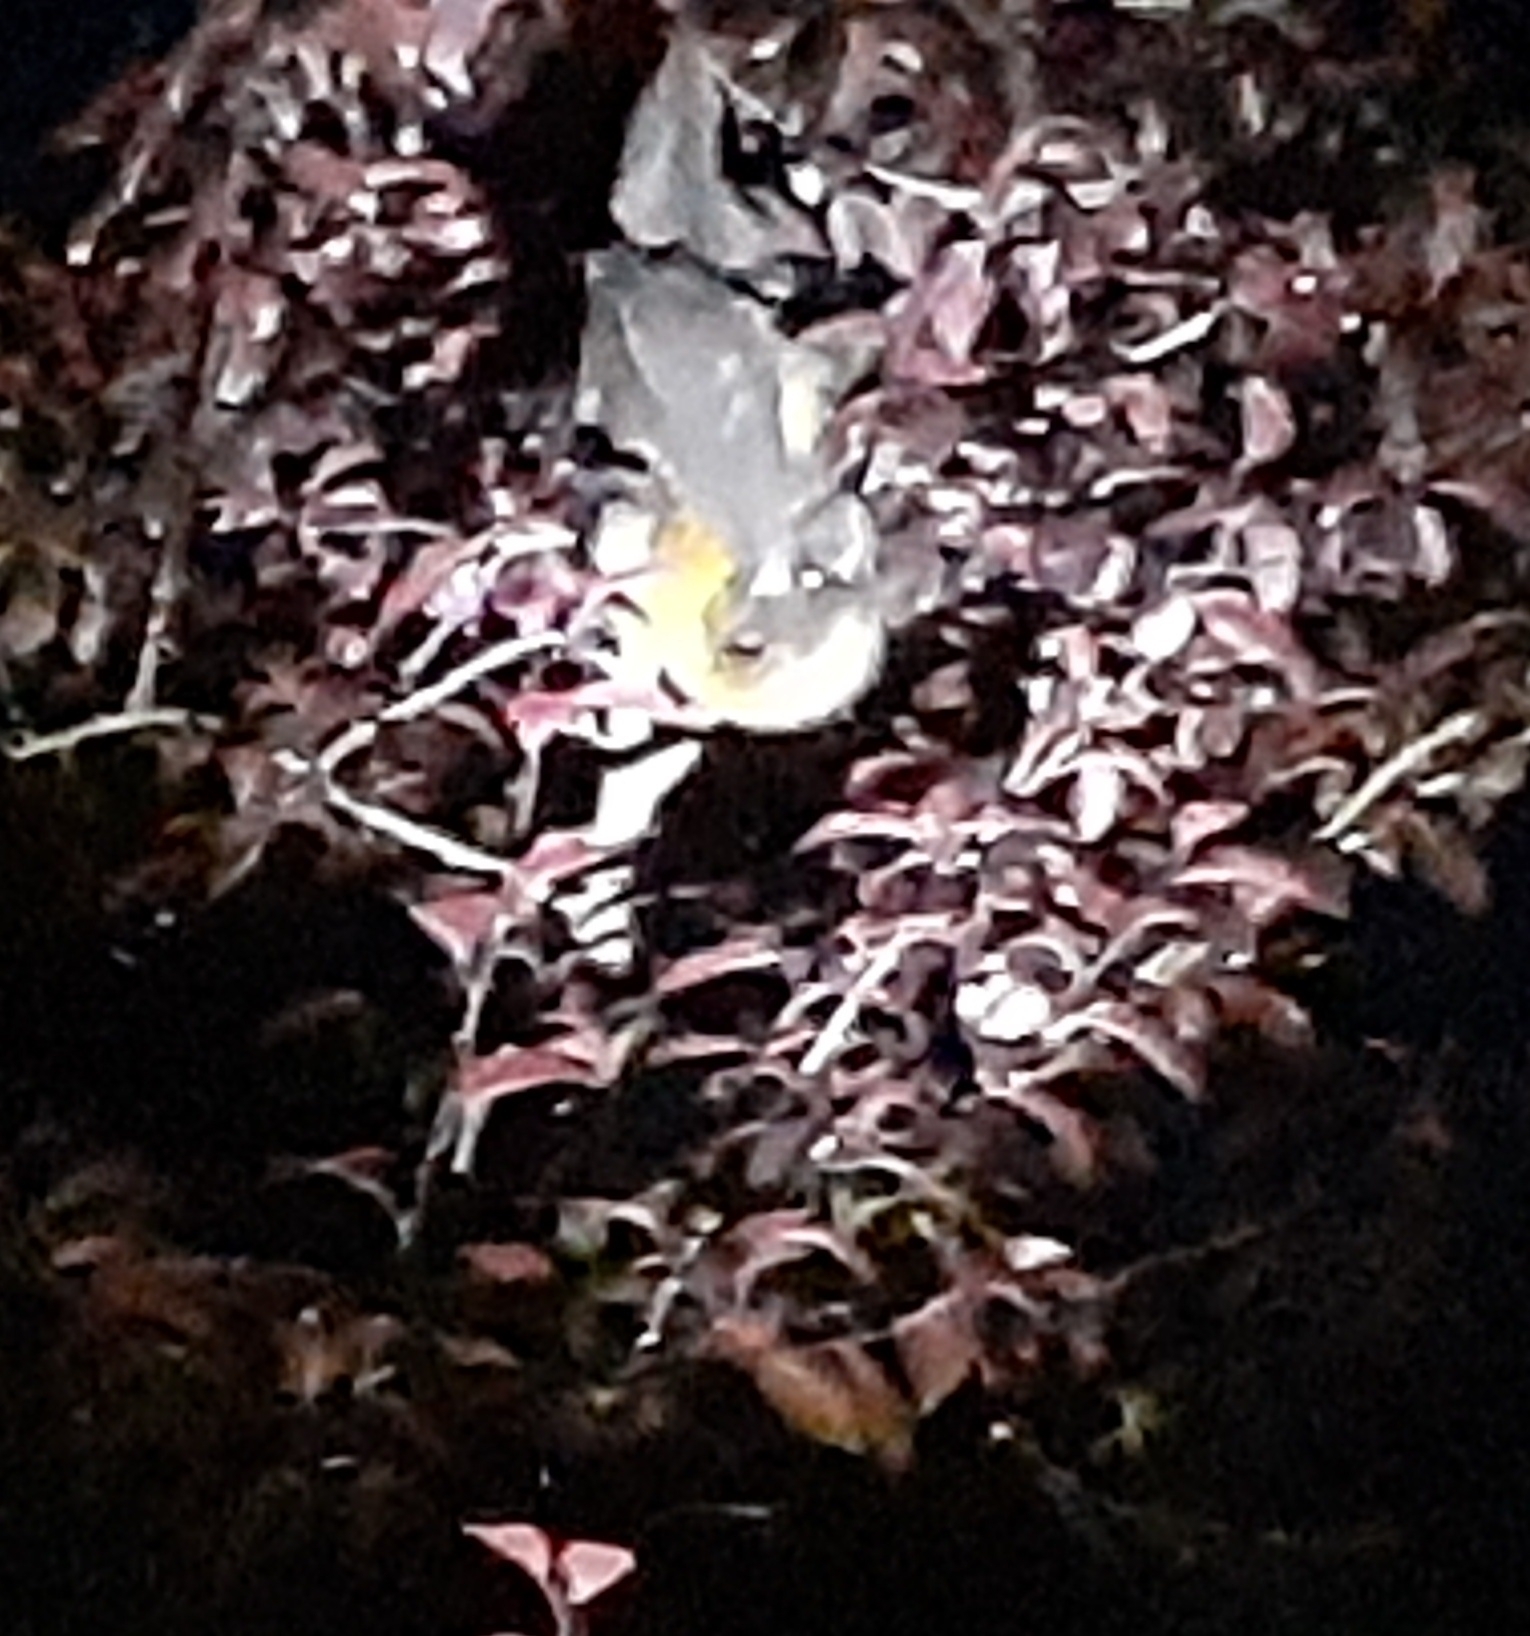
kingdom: Animalia
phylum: Chordata
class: Mammalia
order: Chiroptera
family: Pteropodidae
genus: Pteropus
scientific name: Pteropus poliocephalus
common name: Gray-headed flying fox
